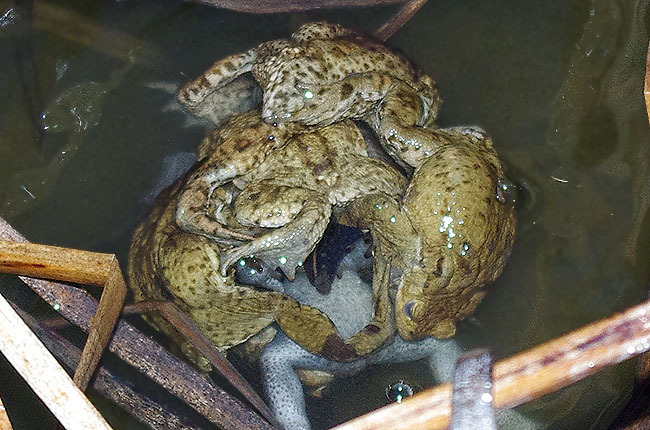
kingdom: Animalia
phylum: Annelida
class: Clitellata
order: Arhynchobdellida
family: Hirudinidae
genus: Hirudo
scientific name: Hirudo medicinalis
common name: Medicinal leech
